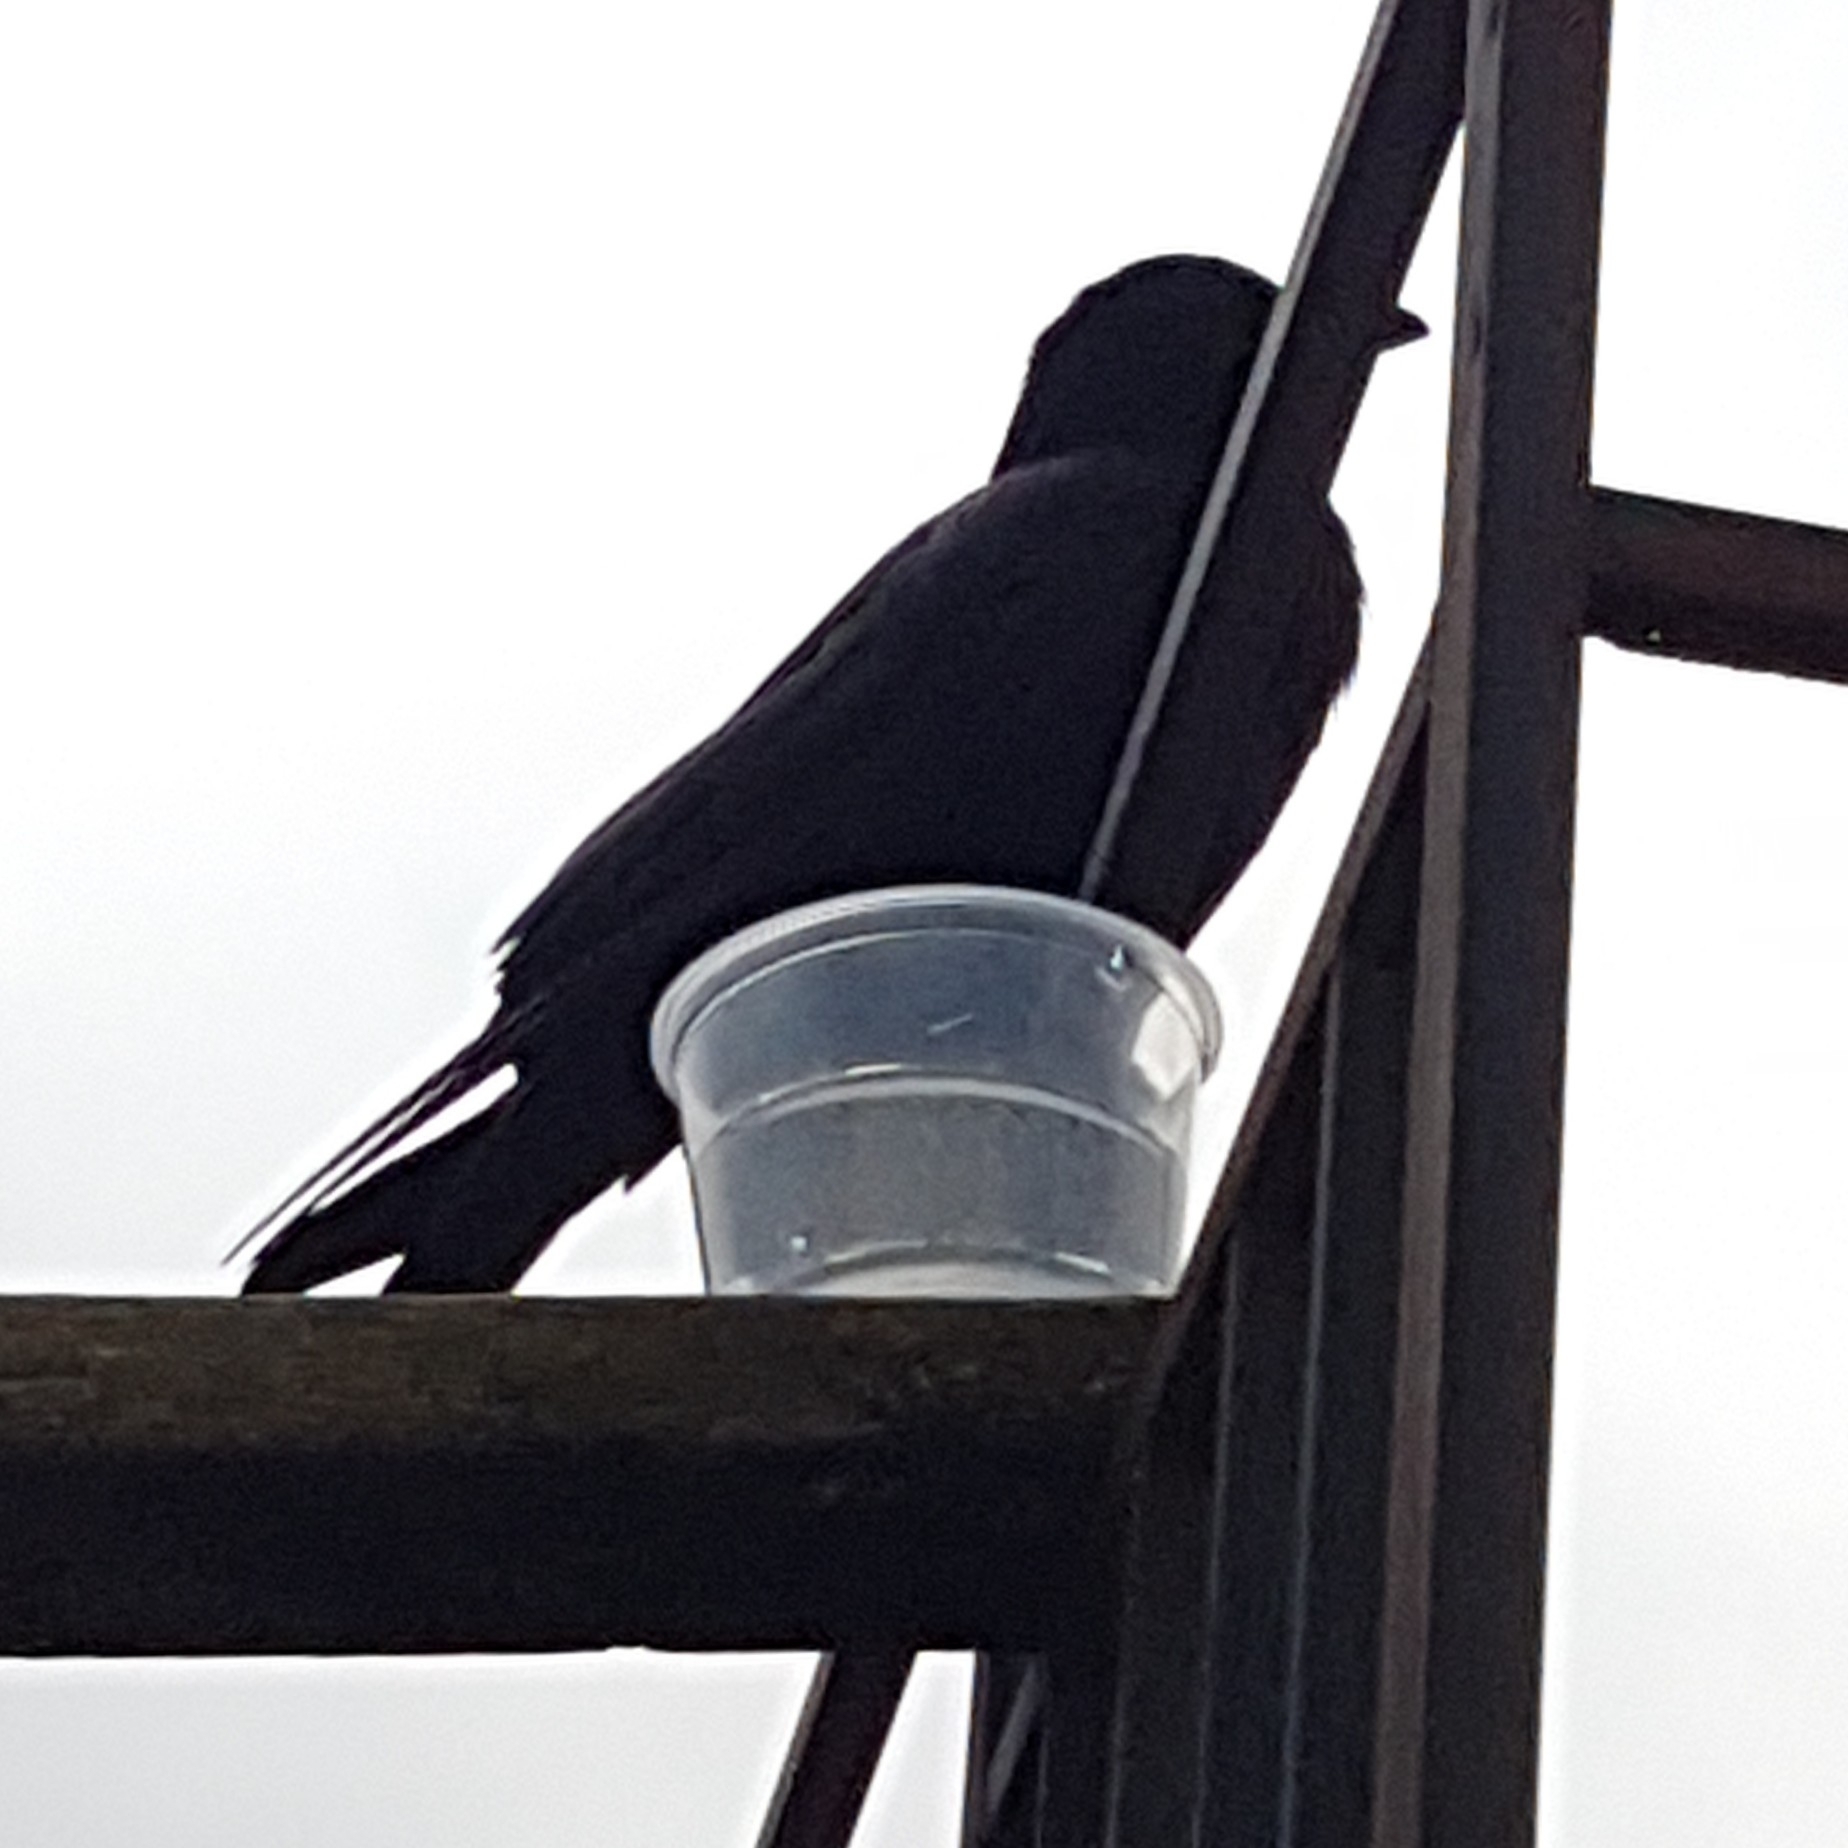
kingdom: Animalia
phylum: Chordata
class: Aves
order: Passeriformes
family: Corvidae
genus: Corvus
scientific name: Corvus brachyrhynchos
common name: American crow
